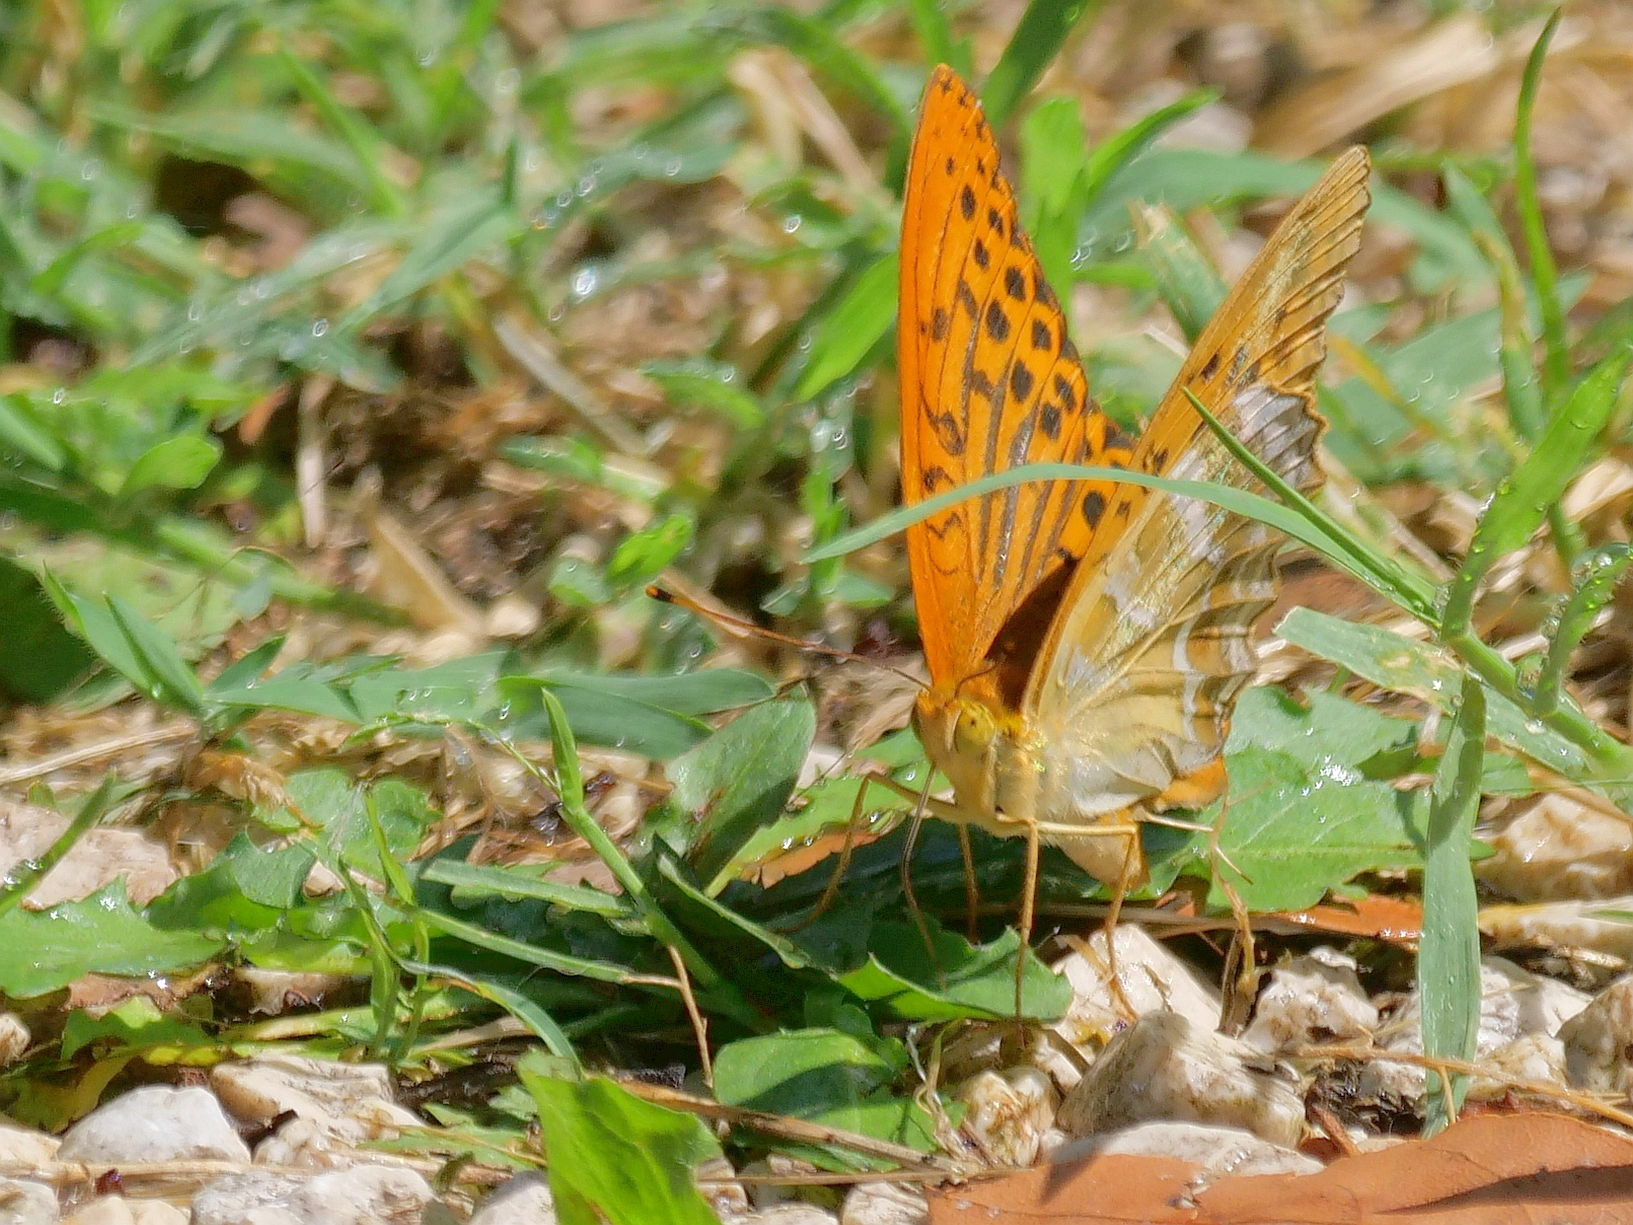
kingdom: Animalia
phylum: Arthropoda
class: Insecta
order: Lepidoptera
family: Nymphalidae
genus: Argynnis
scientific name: Argynnis paphia
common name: Silver-washed fritillary
